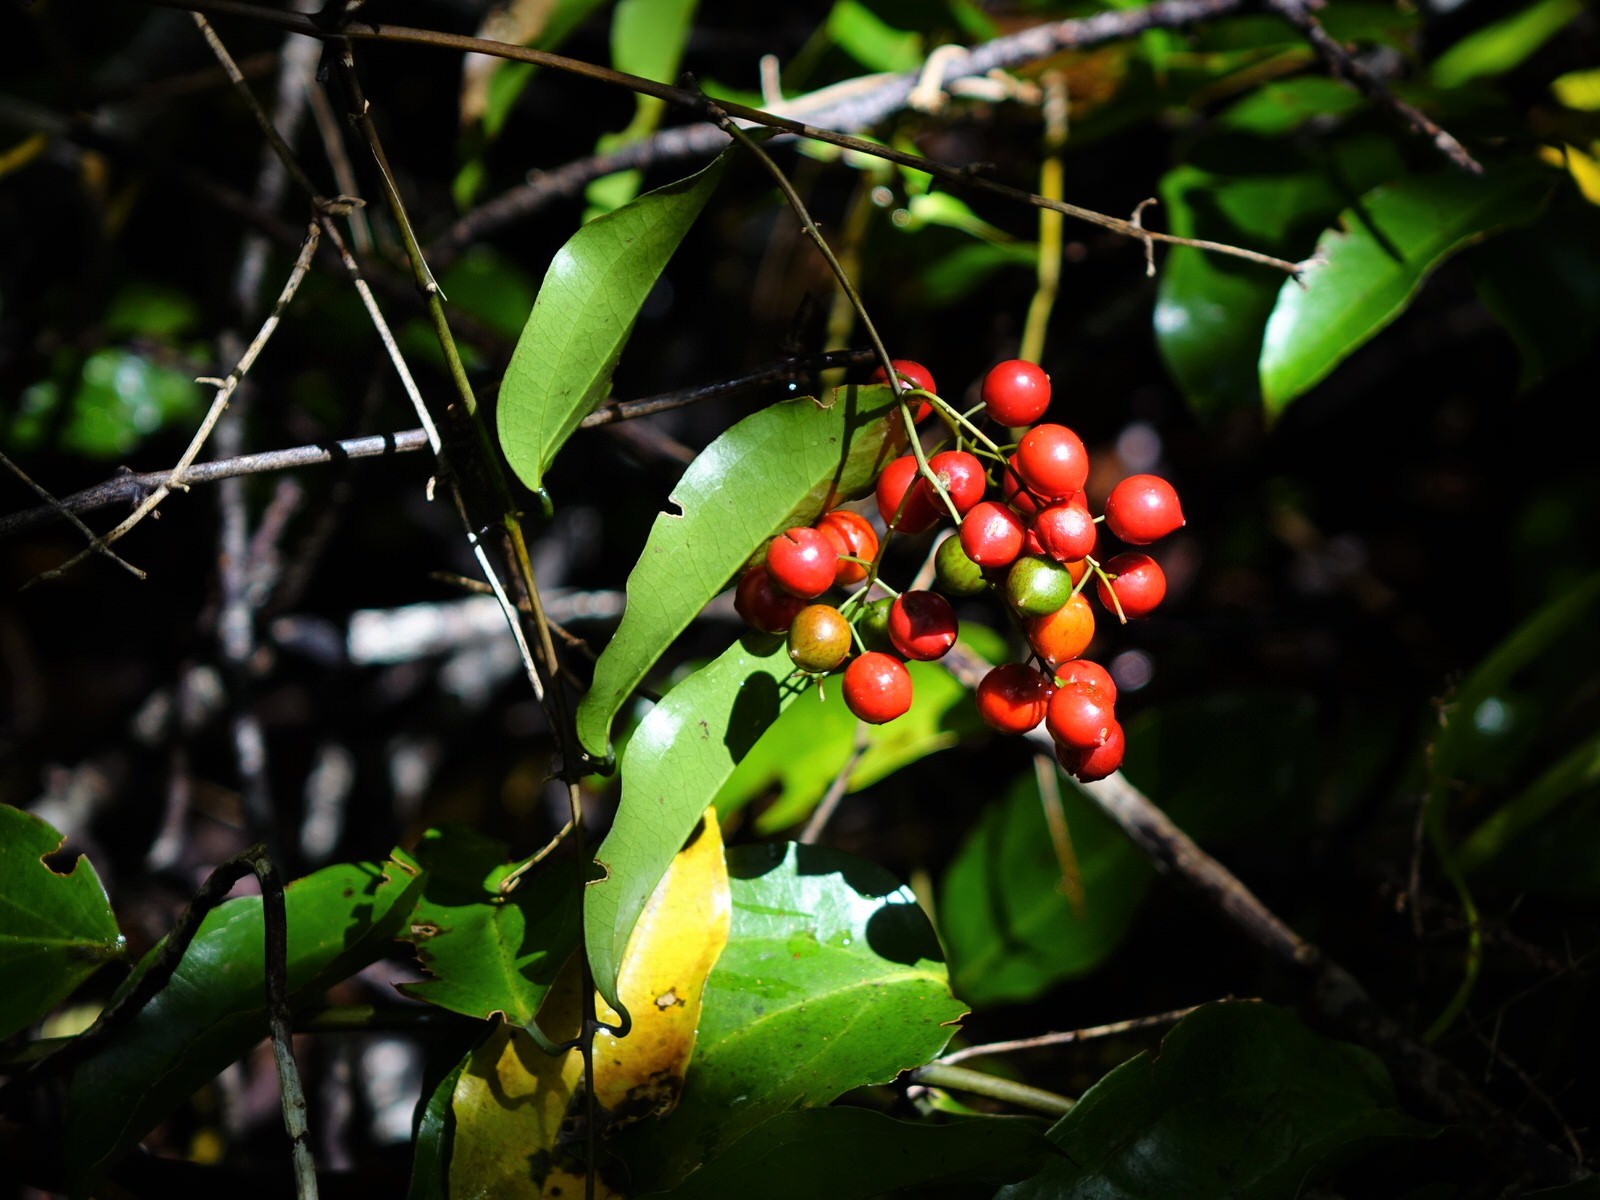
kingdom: Plantae
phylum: Tracheophyta
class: Liliopsida
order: Liliales
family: Ripogonaceae
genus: Ripogonum
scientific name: Ripogonum scandens
